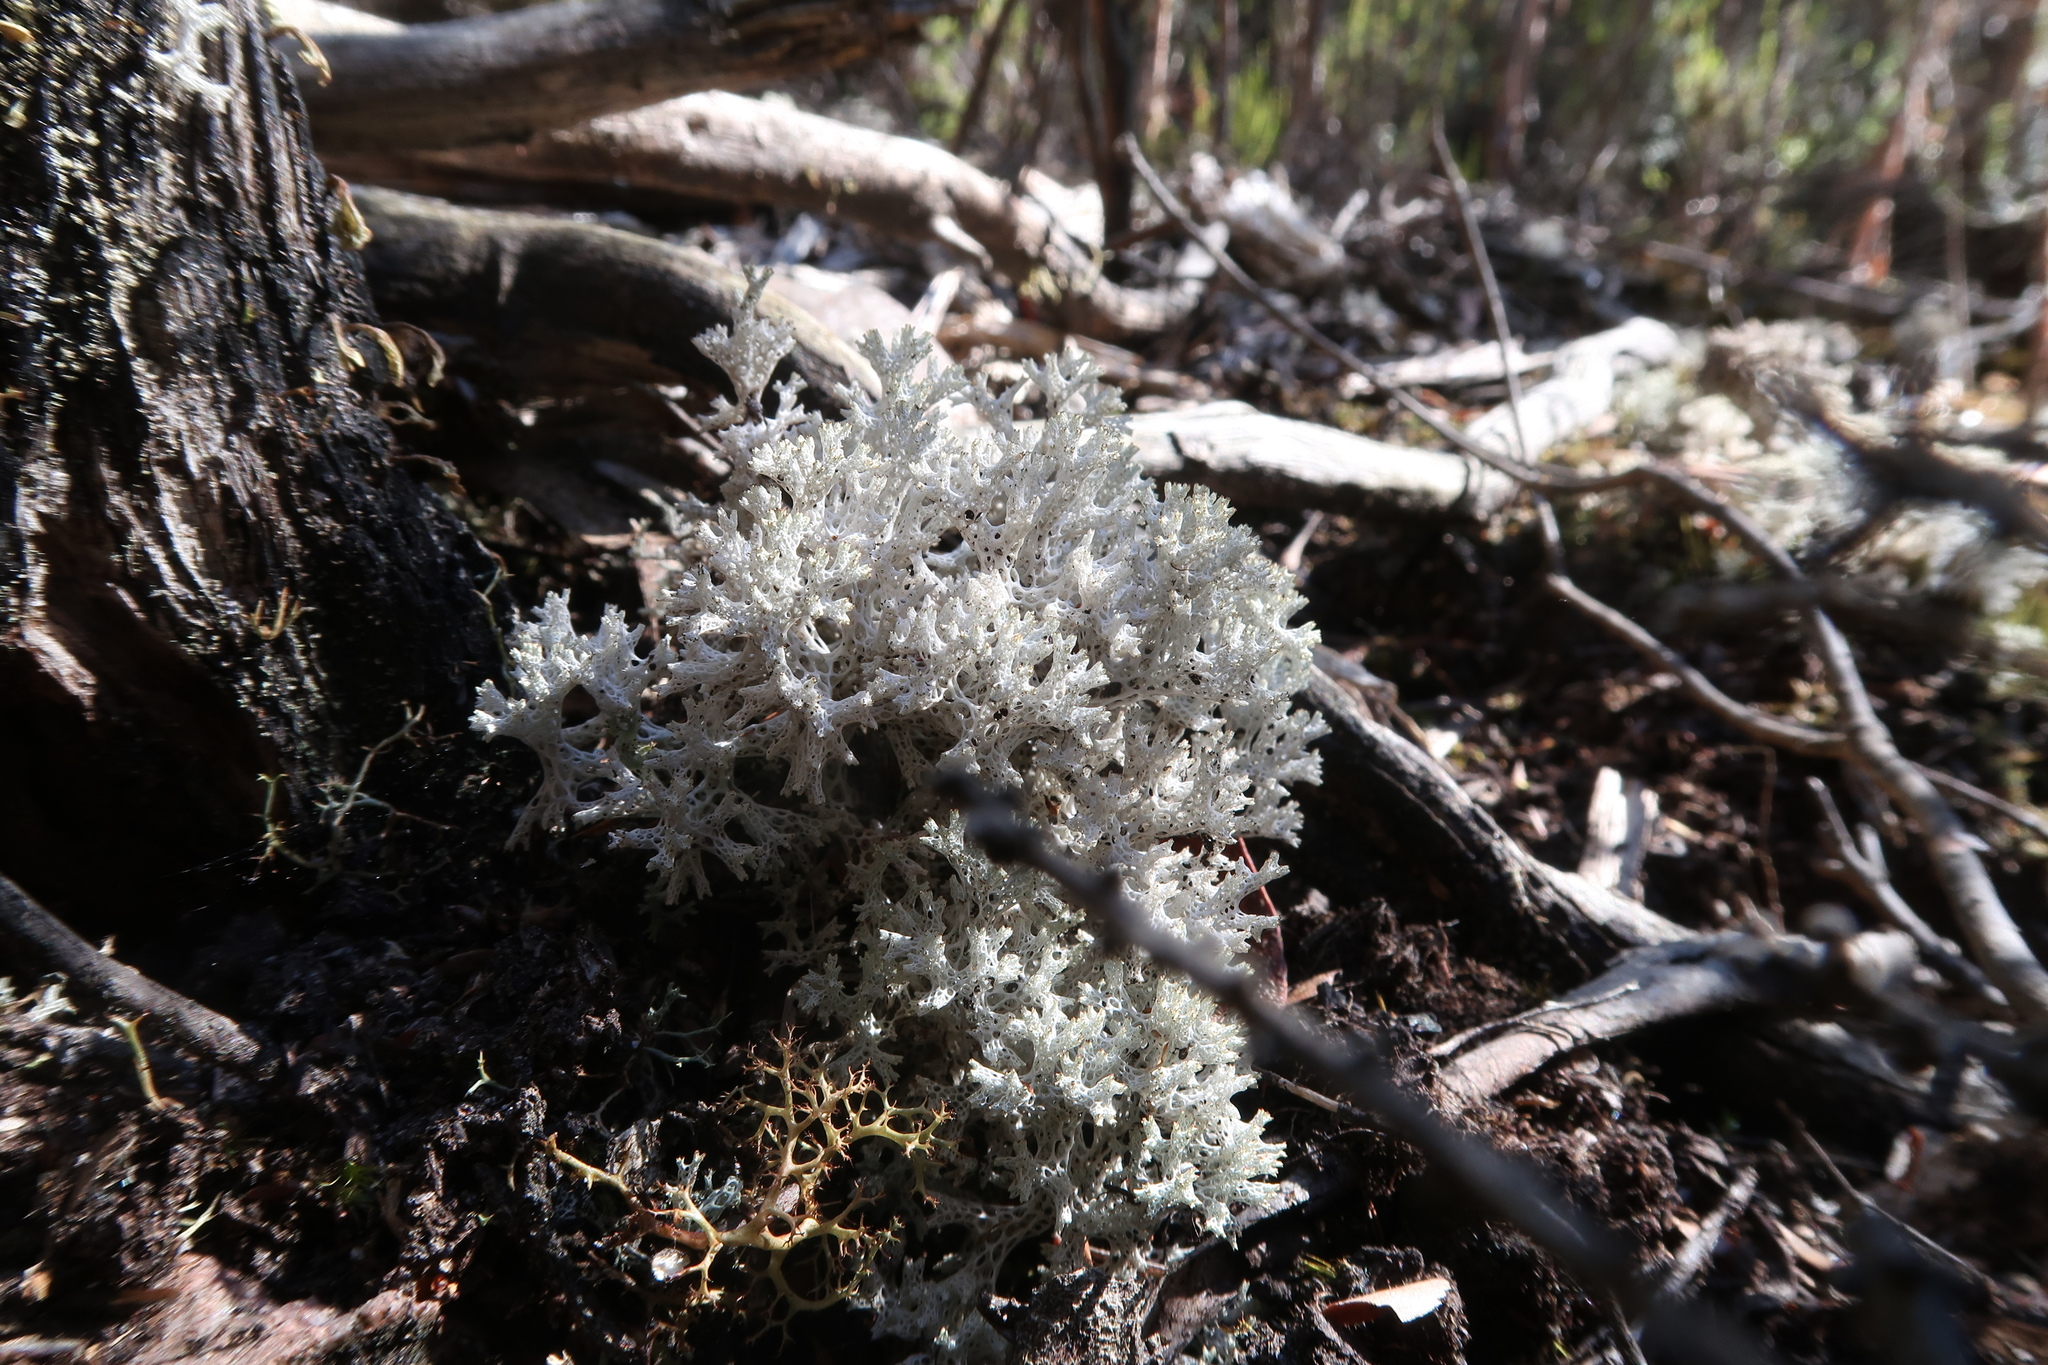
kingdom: Fungi
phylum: Ascomycota
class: Lecanoromycetes
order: Lecanorales
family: Cladoniaceae
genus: Pulchrocladia
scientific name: Pulchrocladia retipora
